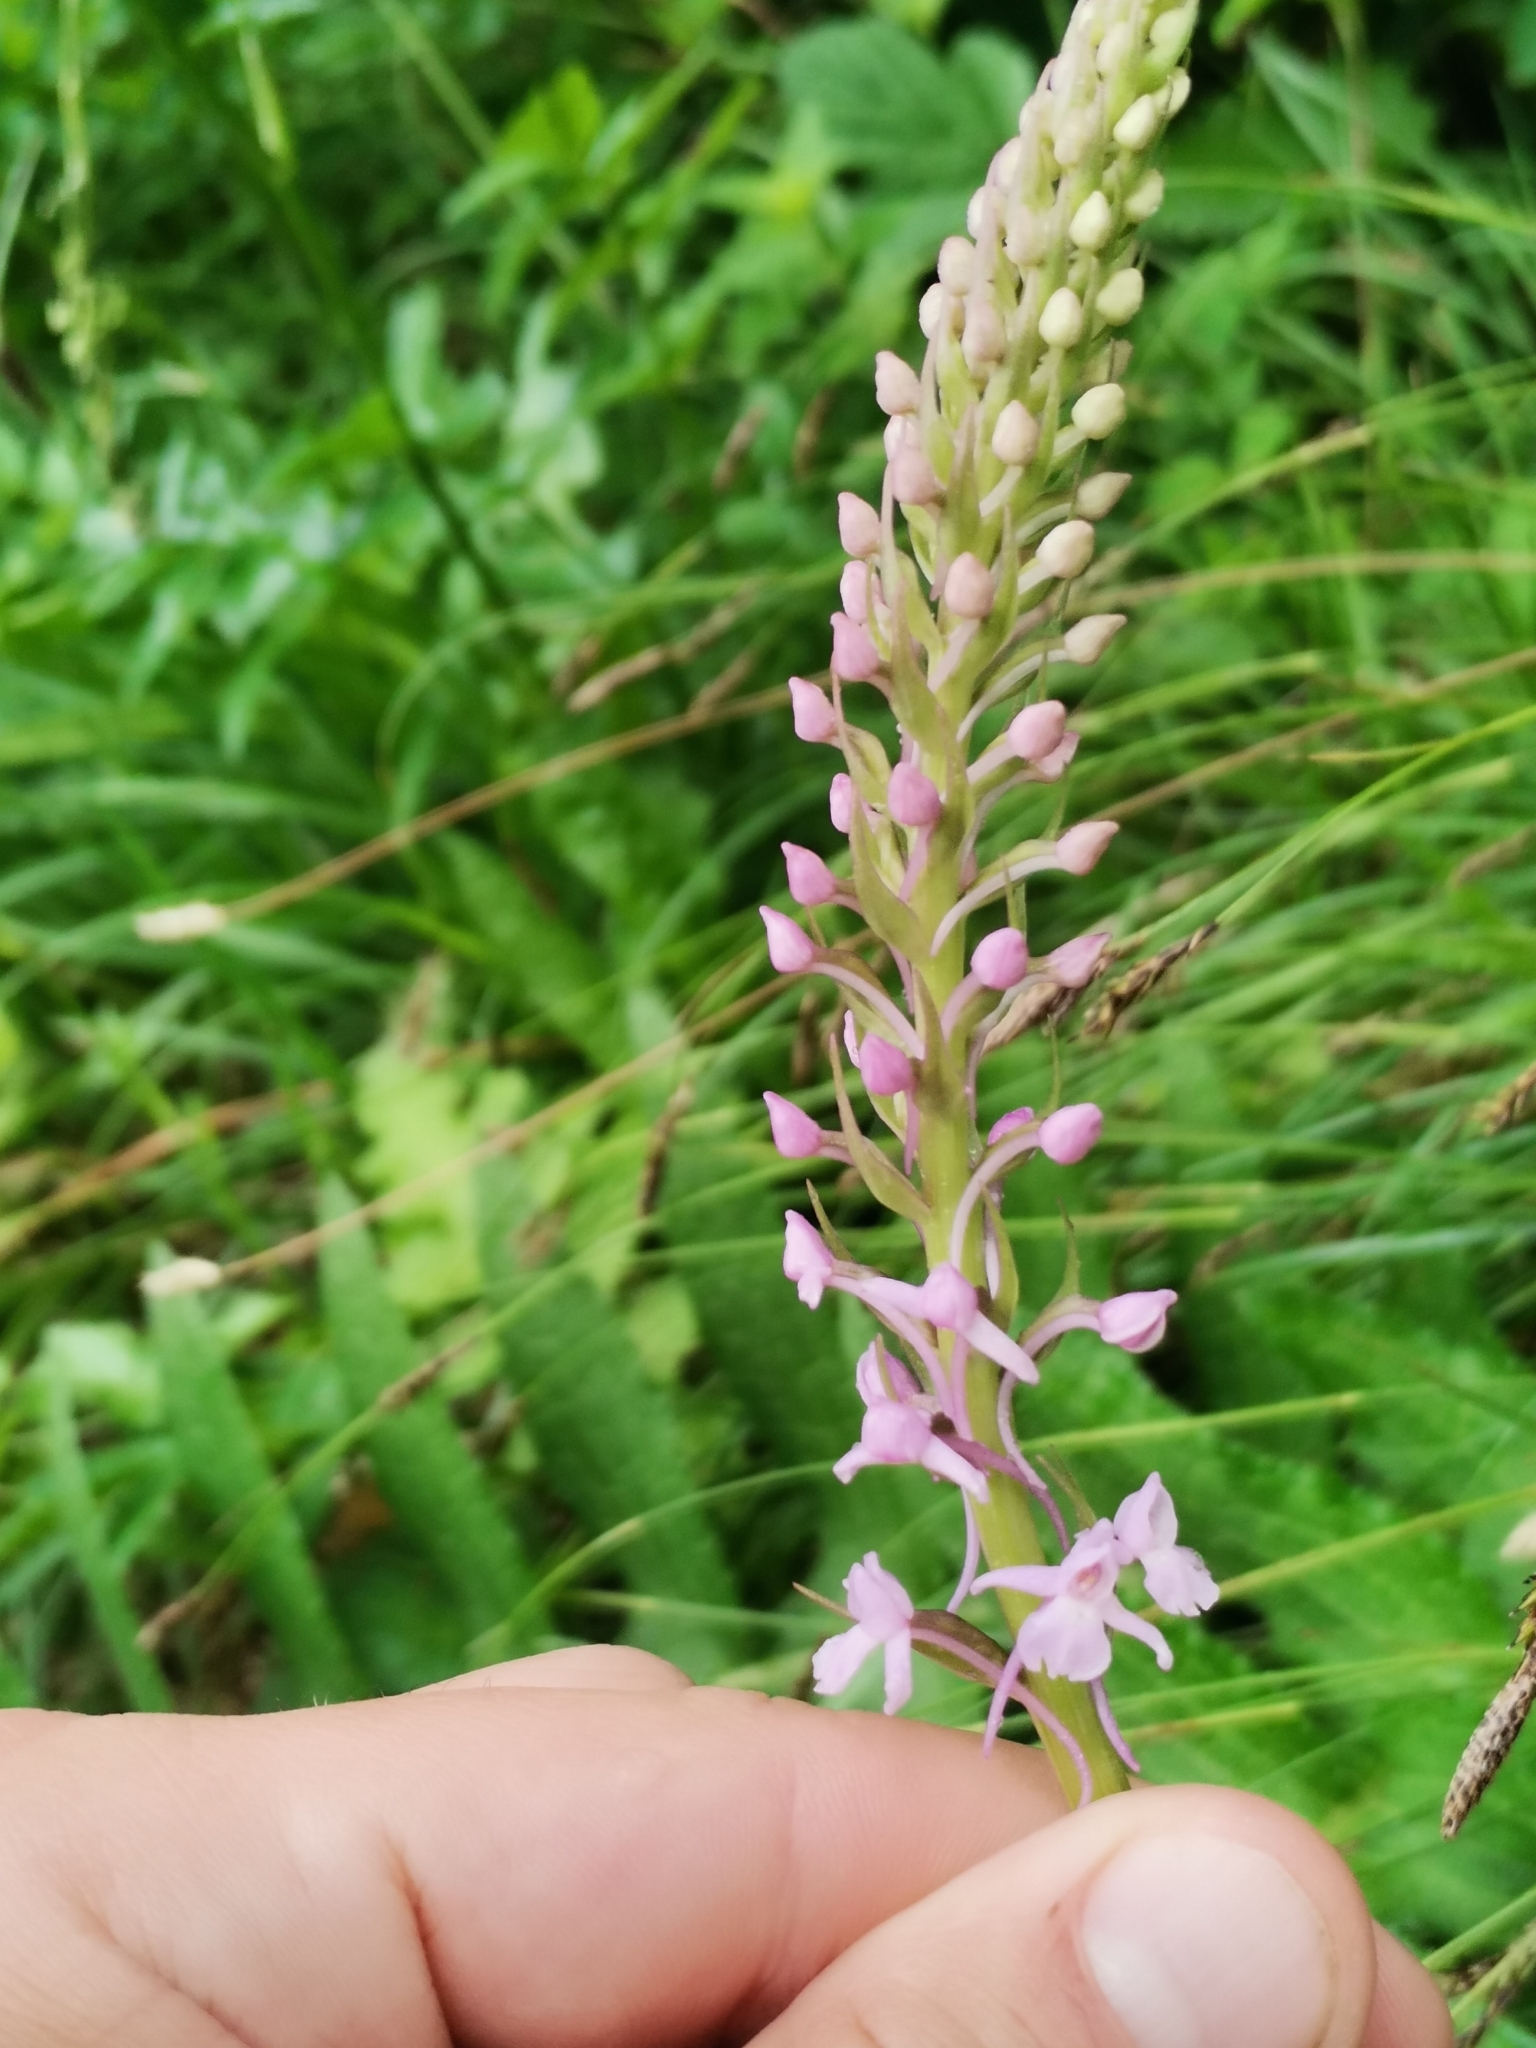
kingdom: Plantae
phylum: Tracheophyta
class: Liliopsida
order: Asparagales
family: Orchidaceae
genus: Gymnadenia
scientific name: Gymnadenia conopsea
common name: Fragrant orchid
